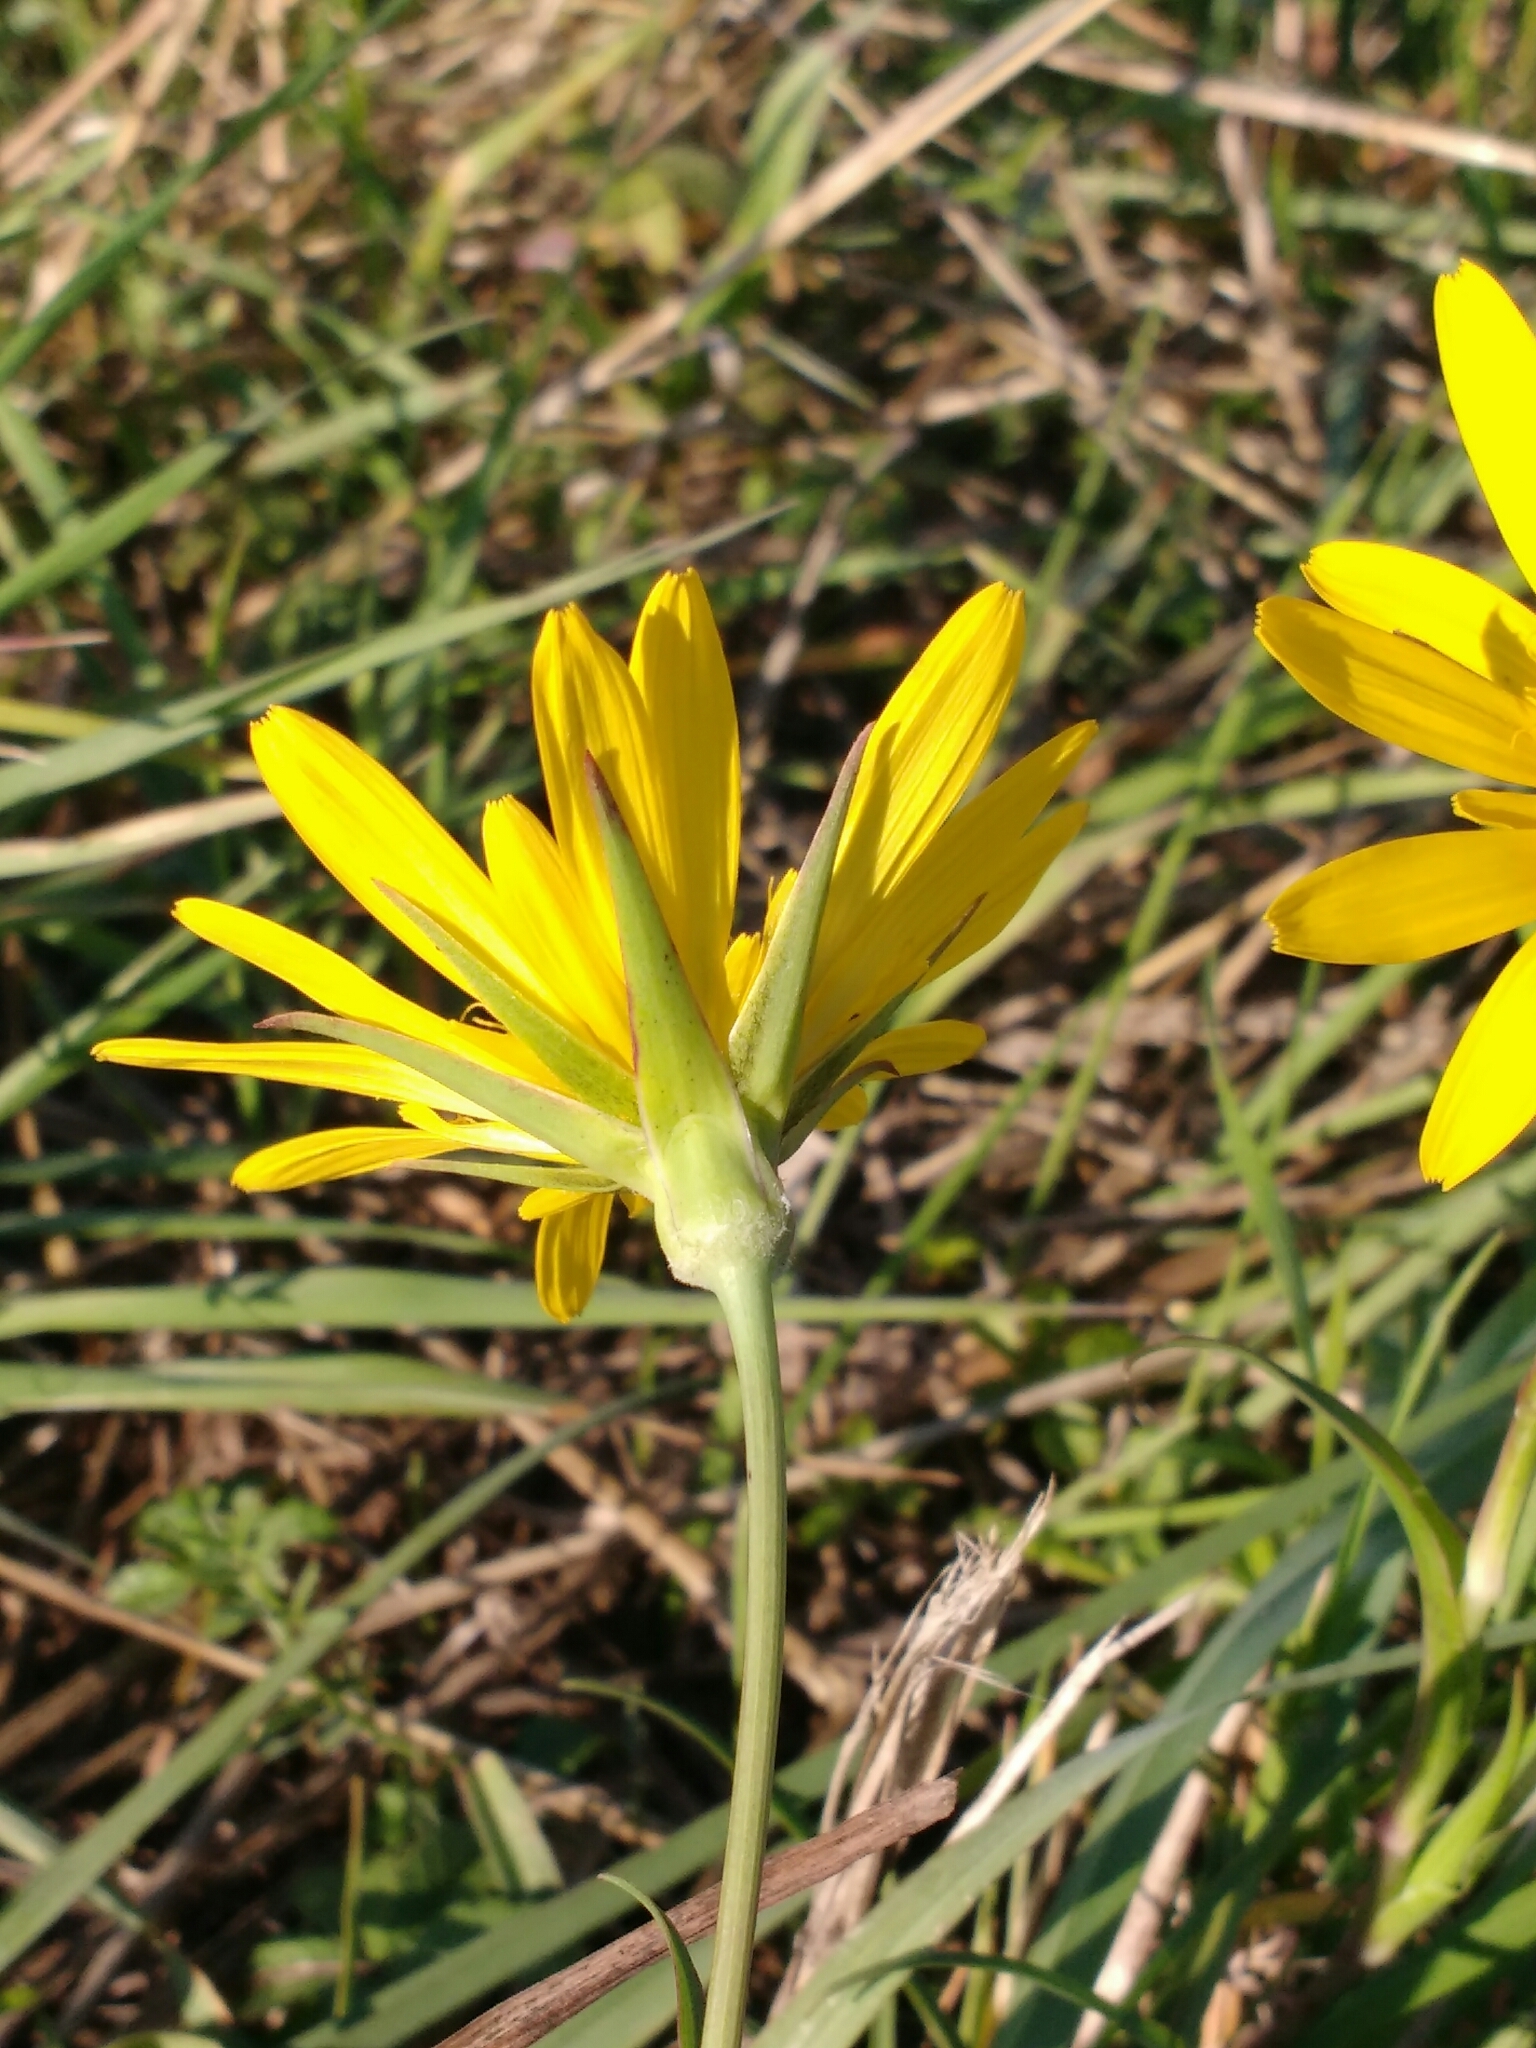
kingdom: Plantae
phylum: Tracheophyta
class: Magnoliopsida
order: Asterales
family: Asteraceae
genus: Tragopogon
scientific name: Tragopogon orientalis
